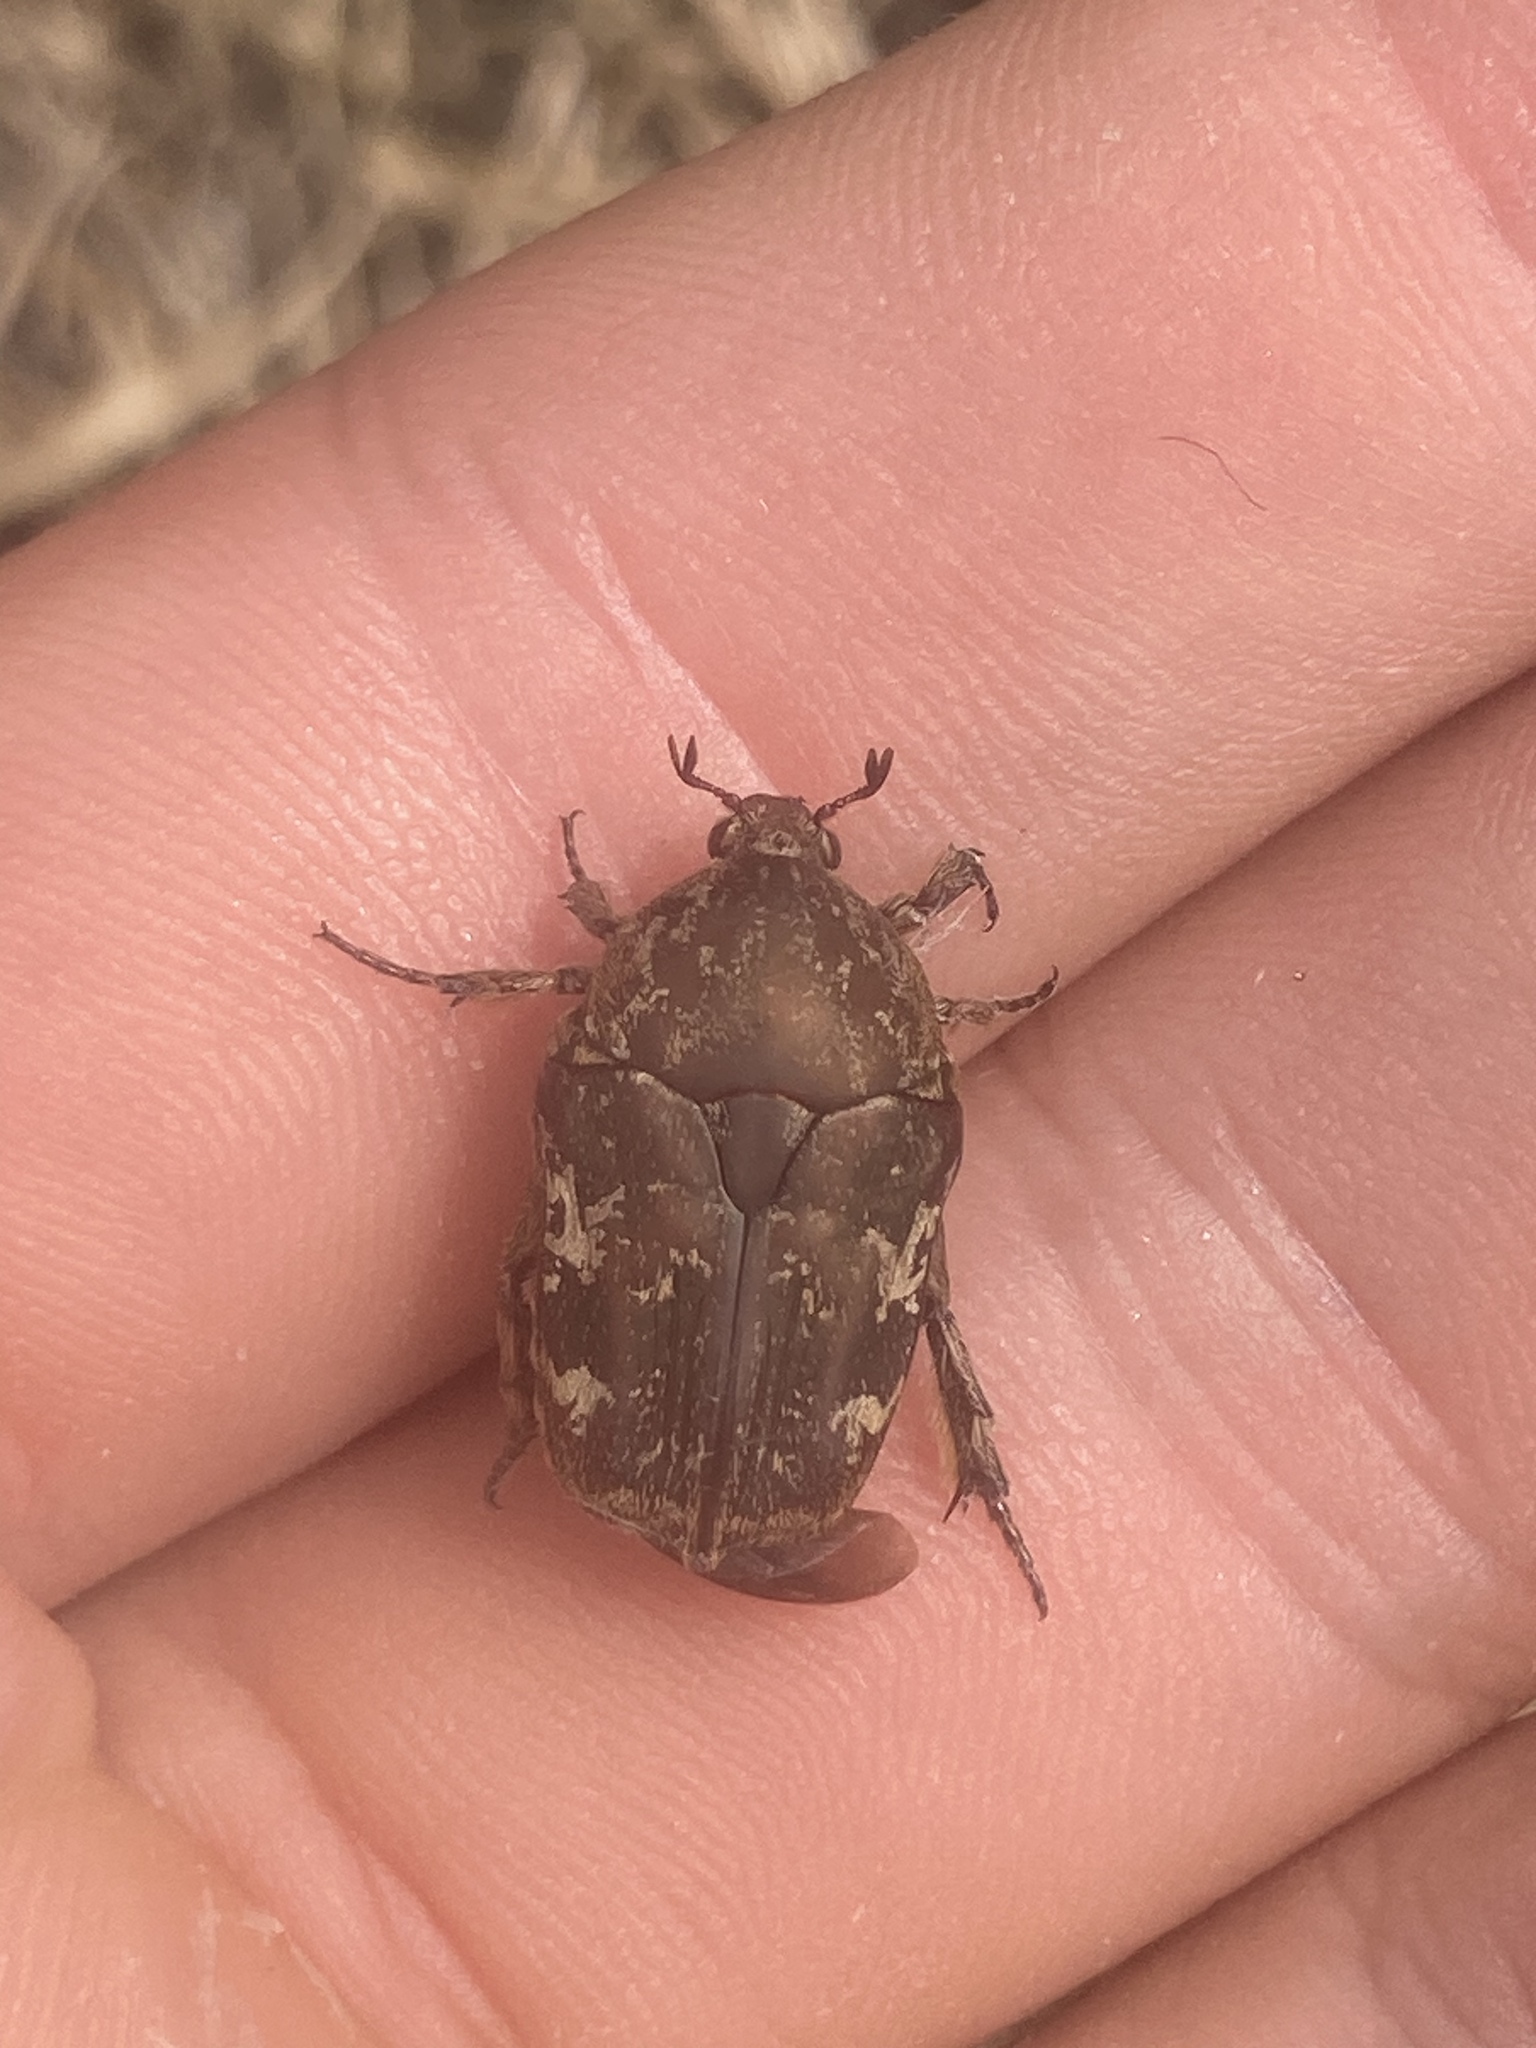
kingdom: Animalia
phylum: Arthropoda
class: Insecta
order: Coleoptera
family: Scarabaeidae
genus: Protaetia
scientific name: Protaetia fusca
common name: Mango flower beetle
